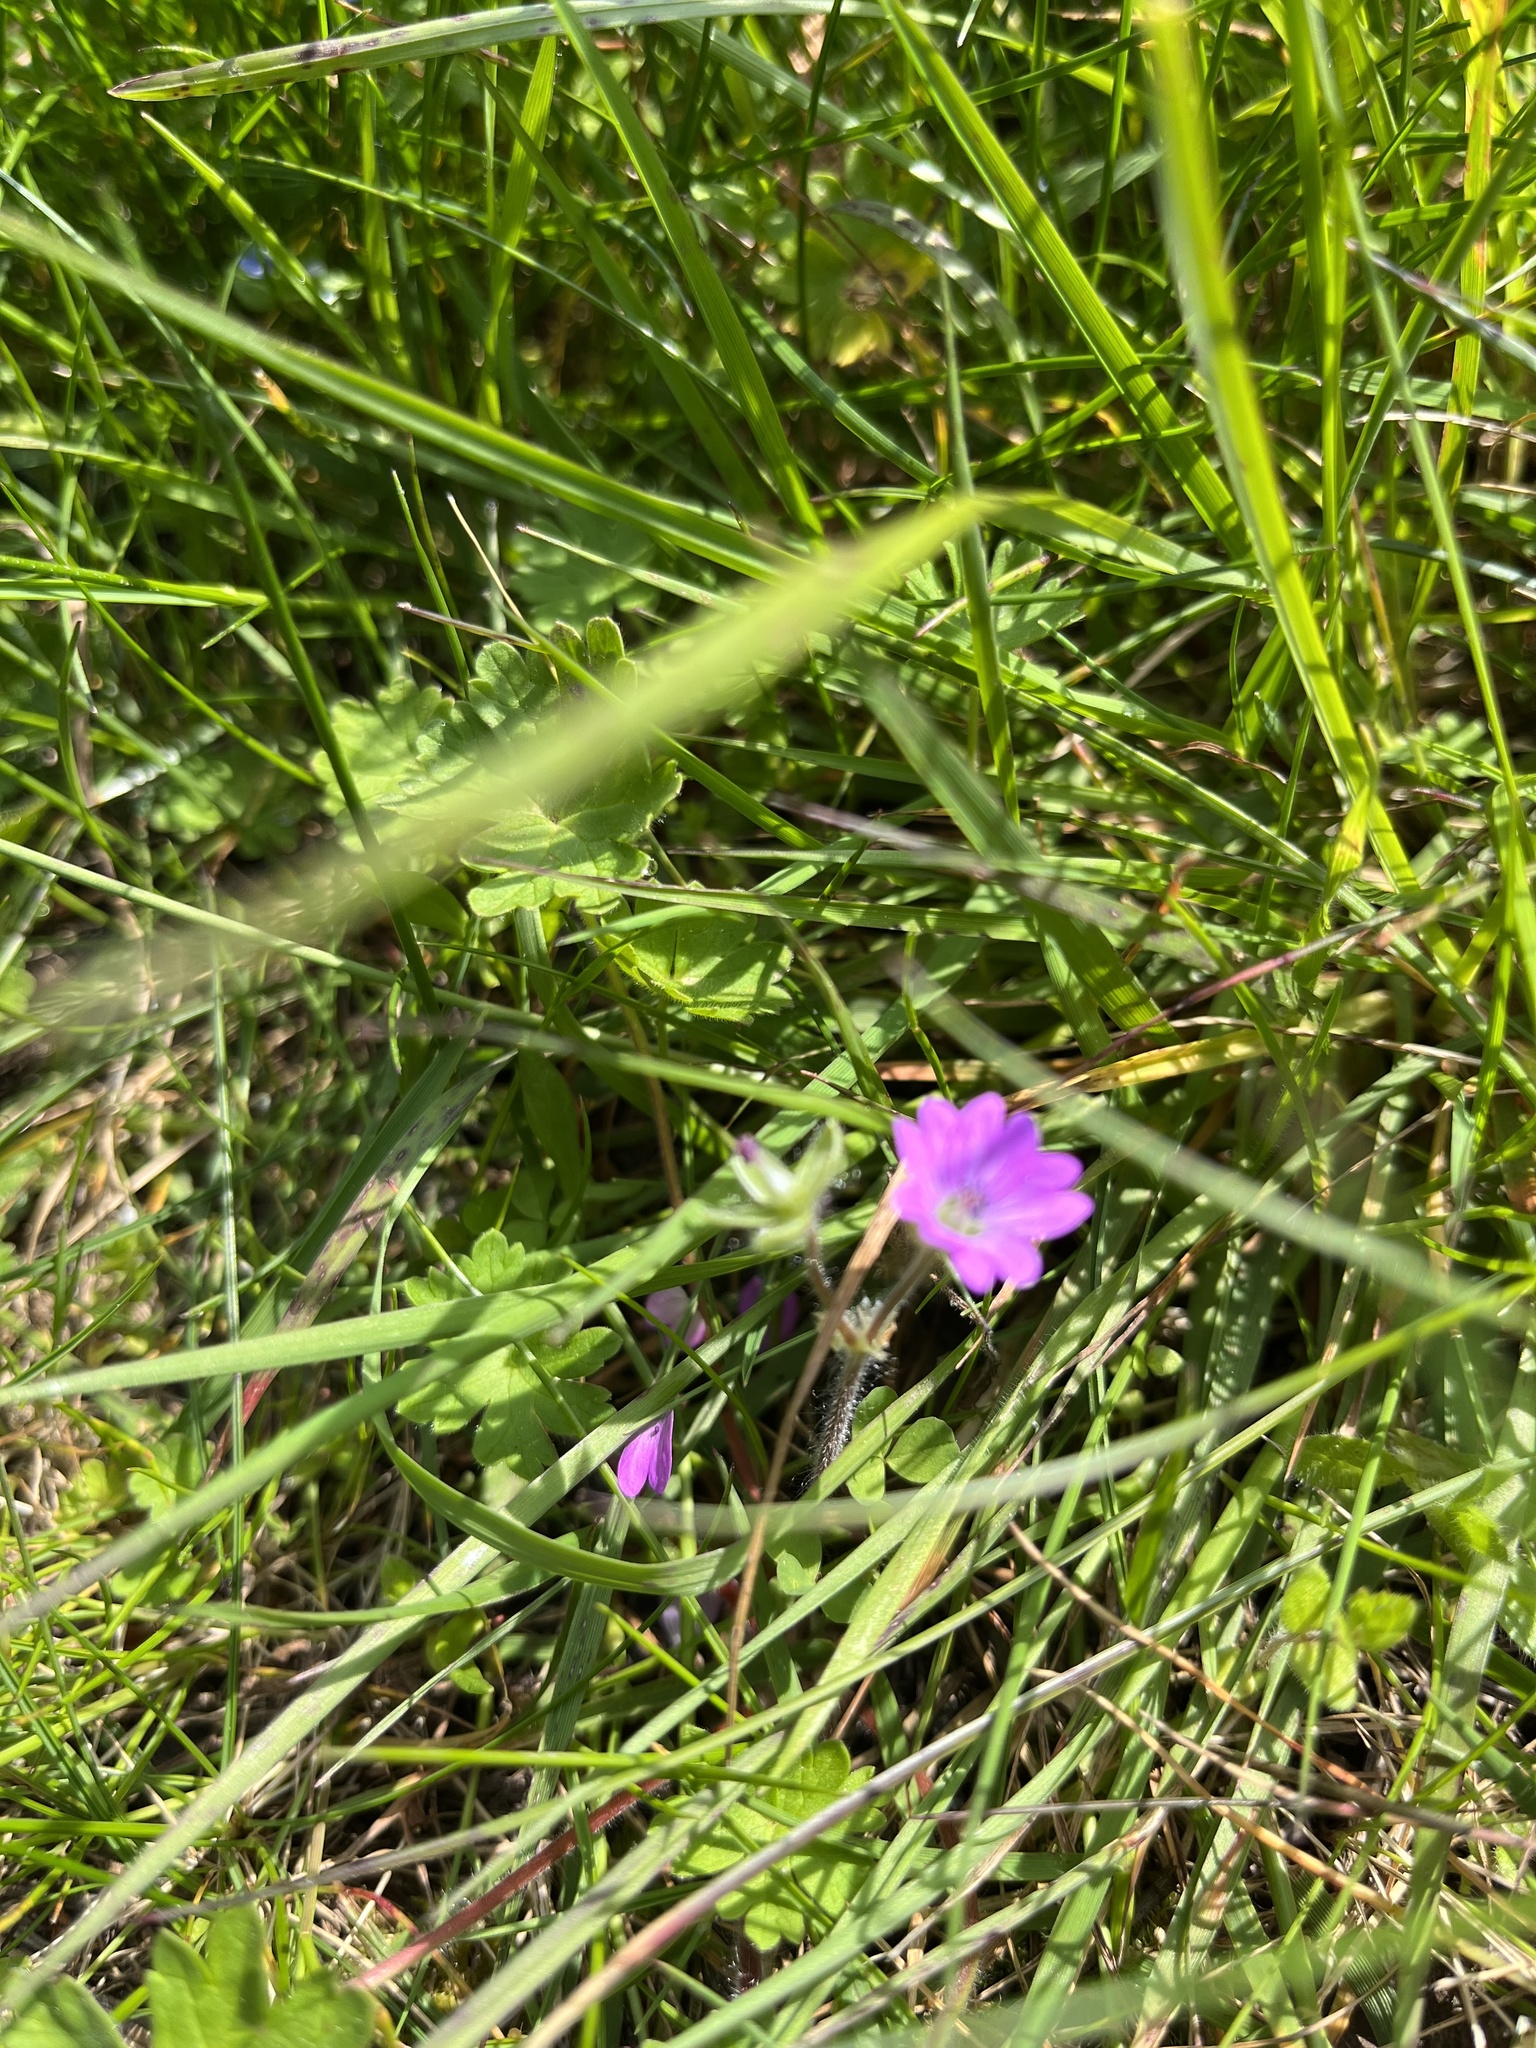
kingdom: Plantae
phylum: Tracheophyta
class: Magnoliopsida
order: Geraniales
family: Geraniaceae
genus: Geranium
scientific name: Geranium molle
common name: Dove's-foot crane's-bill
